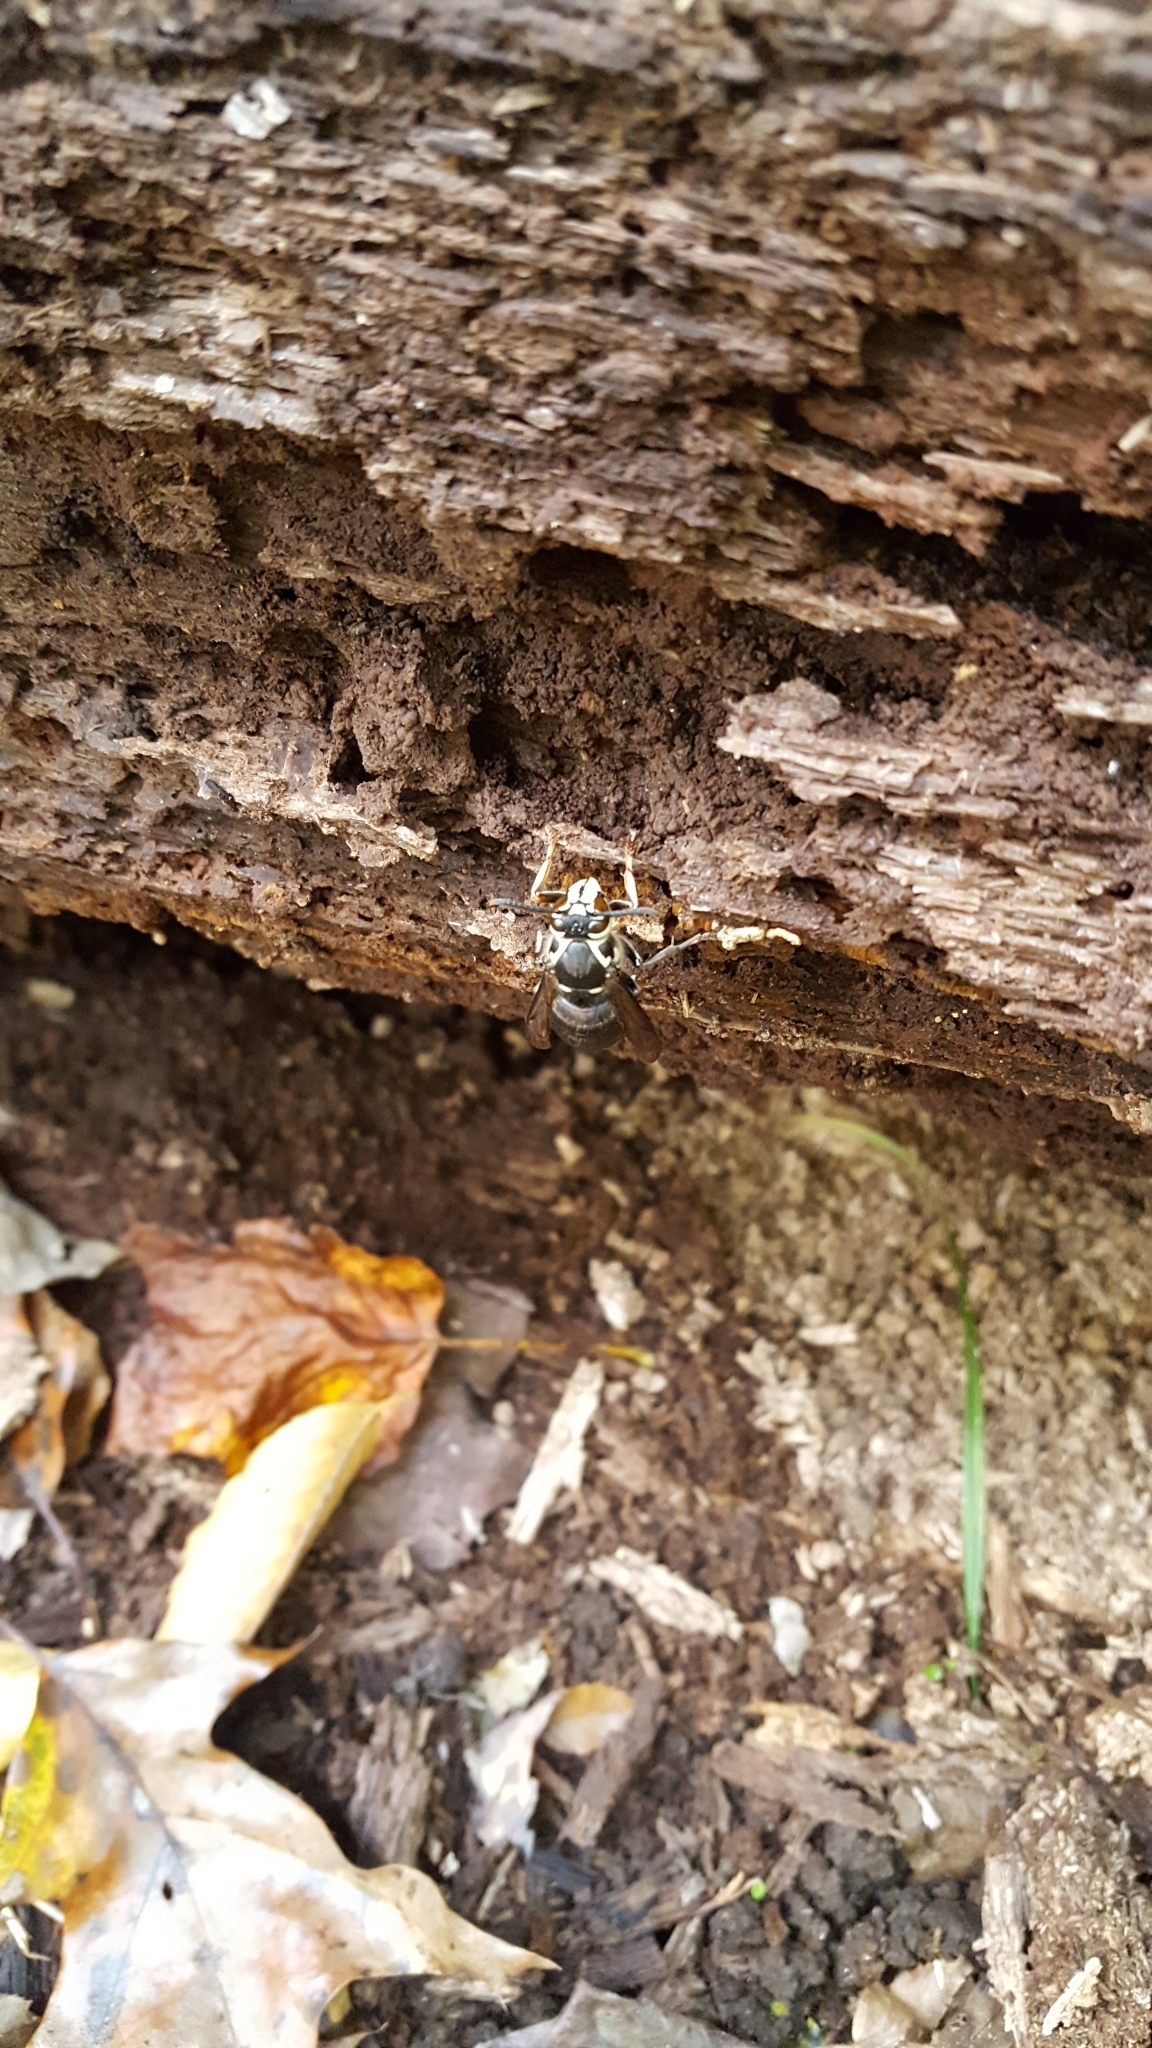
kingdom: Animalia
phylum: Arthropoda
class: Insecta
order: Hymenoptera
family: Vespidae
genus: Dolichovespula
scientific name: Dolichovespula maculata
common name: Bald-faced hornet
